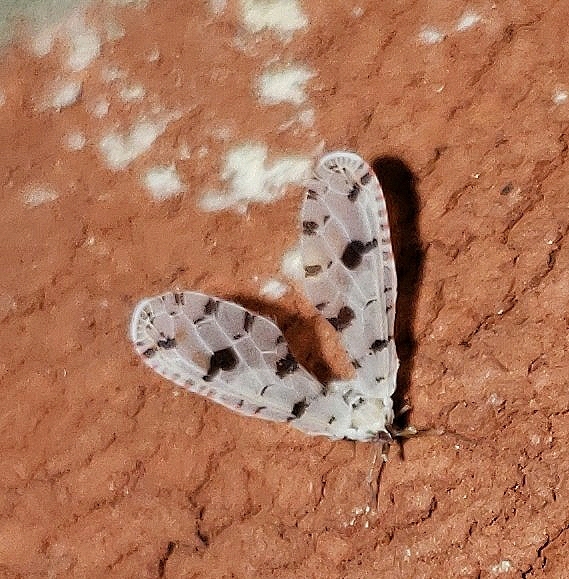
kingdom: Animalia
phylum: Arthropoda
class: Insecta
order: Hemiptera
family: Derbidae
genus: Sikaiana
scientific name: Sikaiana harti
